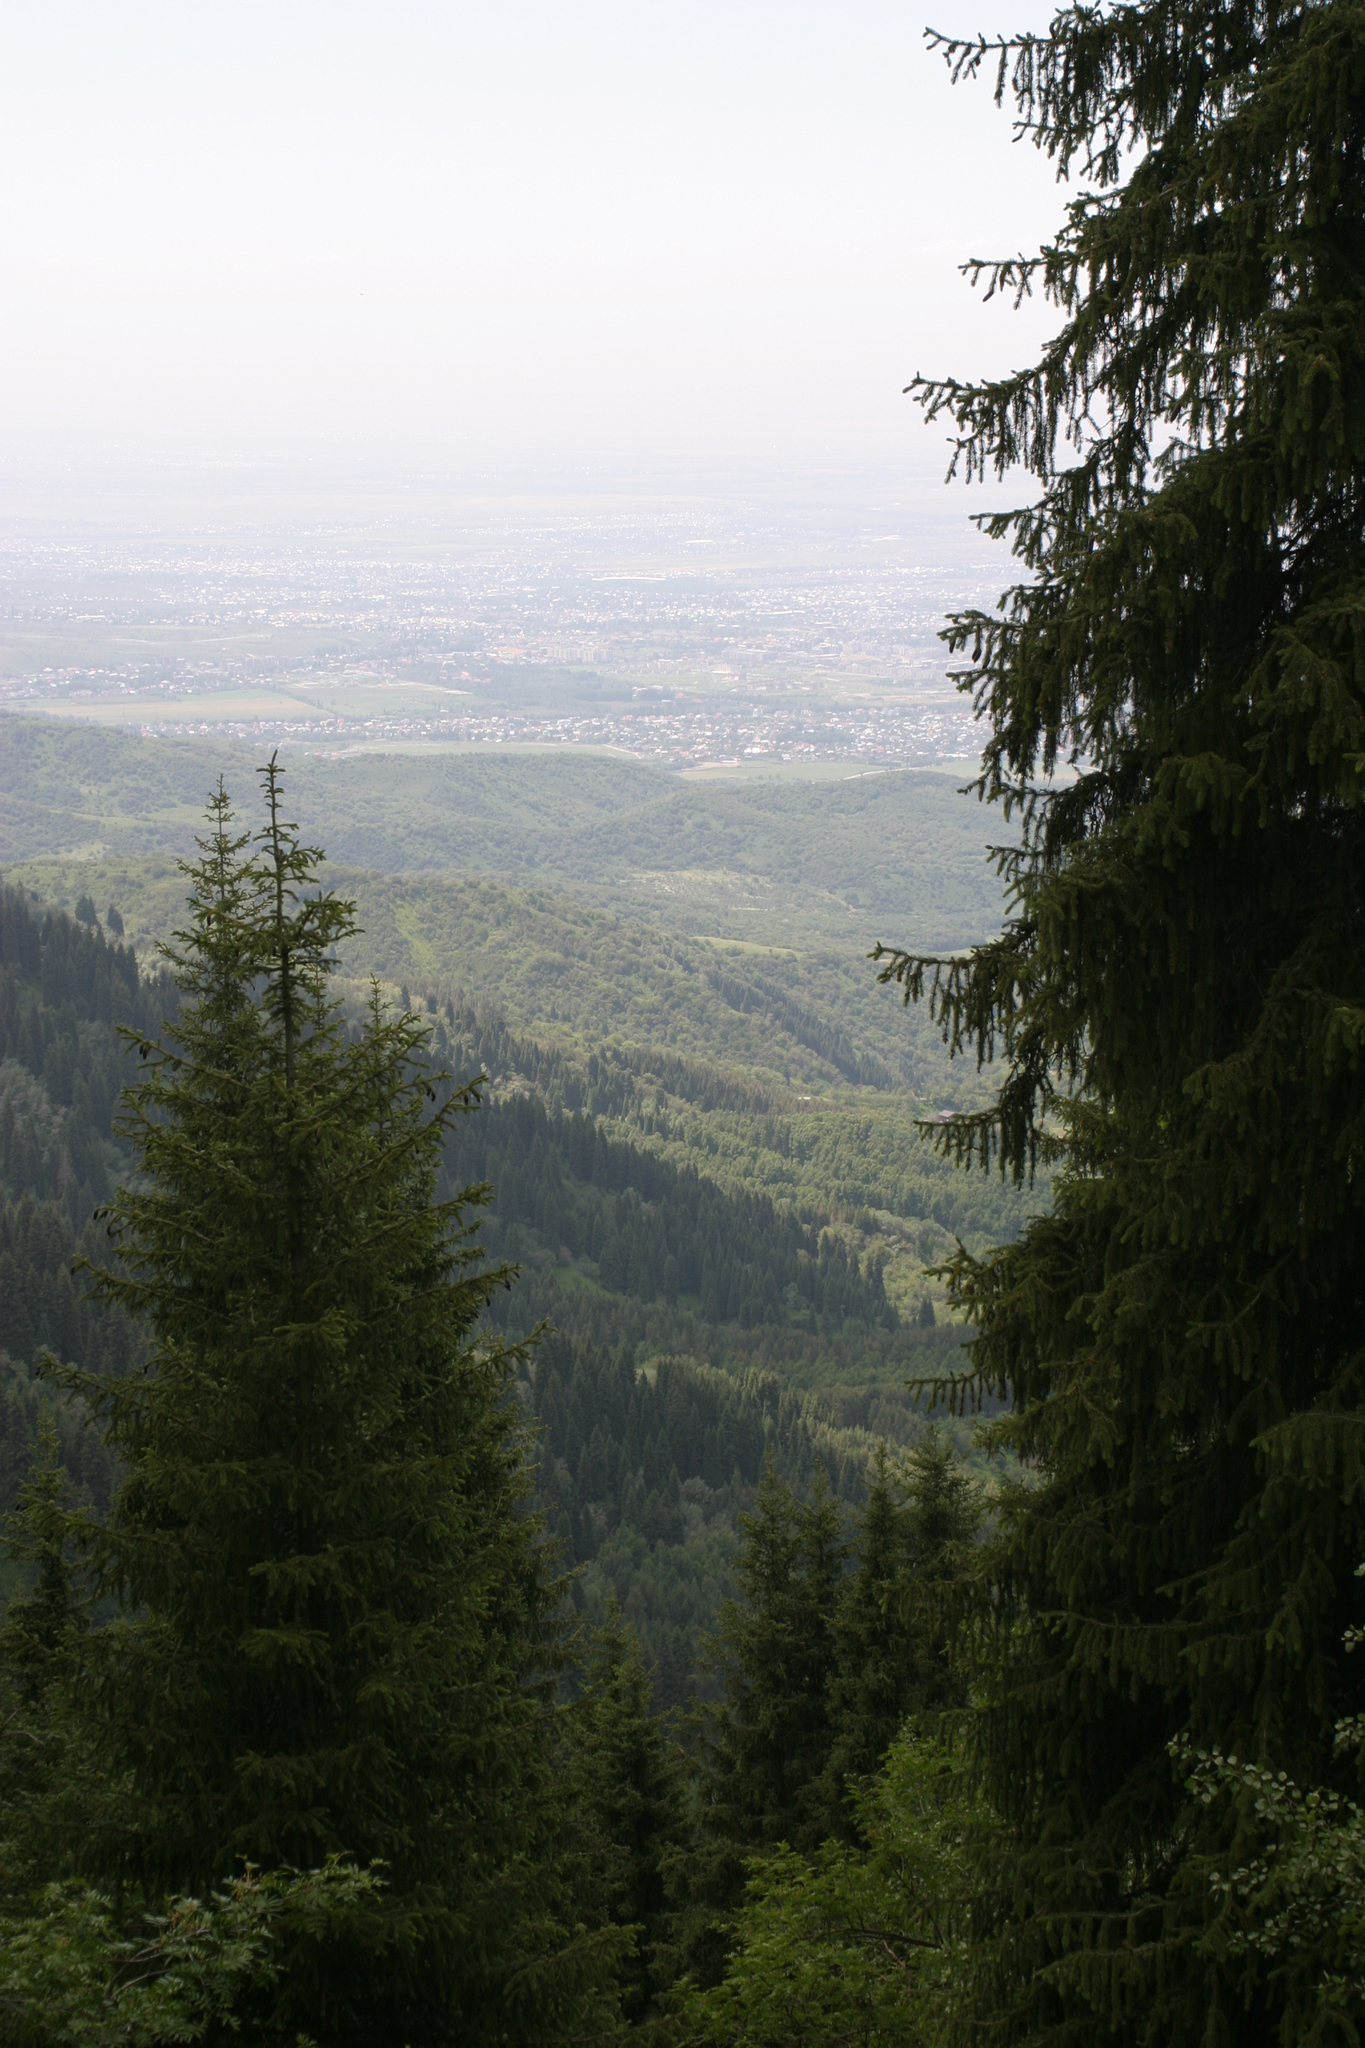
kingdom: Plantae
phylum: Tracheophyta
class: Pinopsida
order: Pinales
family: Pinaceae
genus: Picea
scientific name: Picea schrenkiana
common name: Asian spruce
